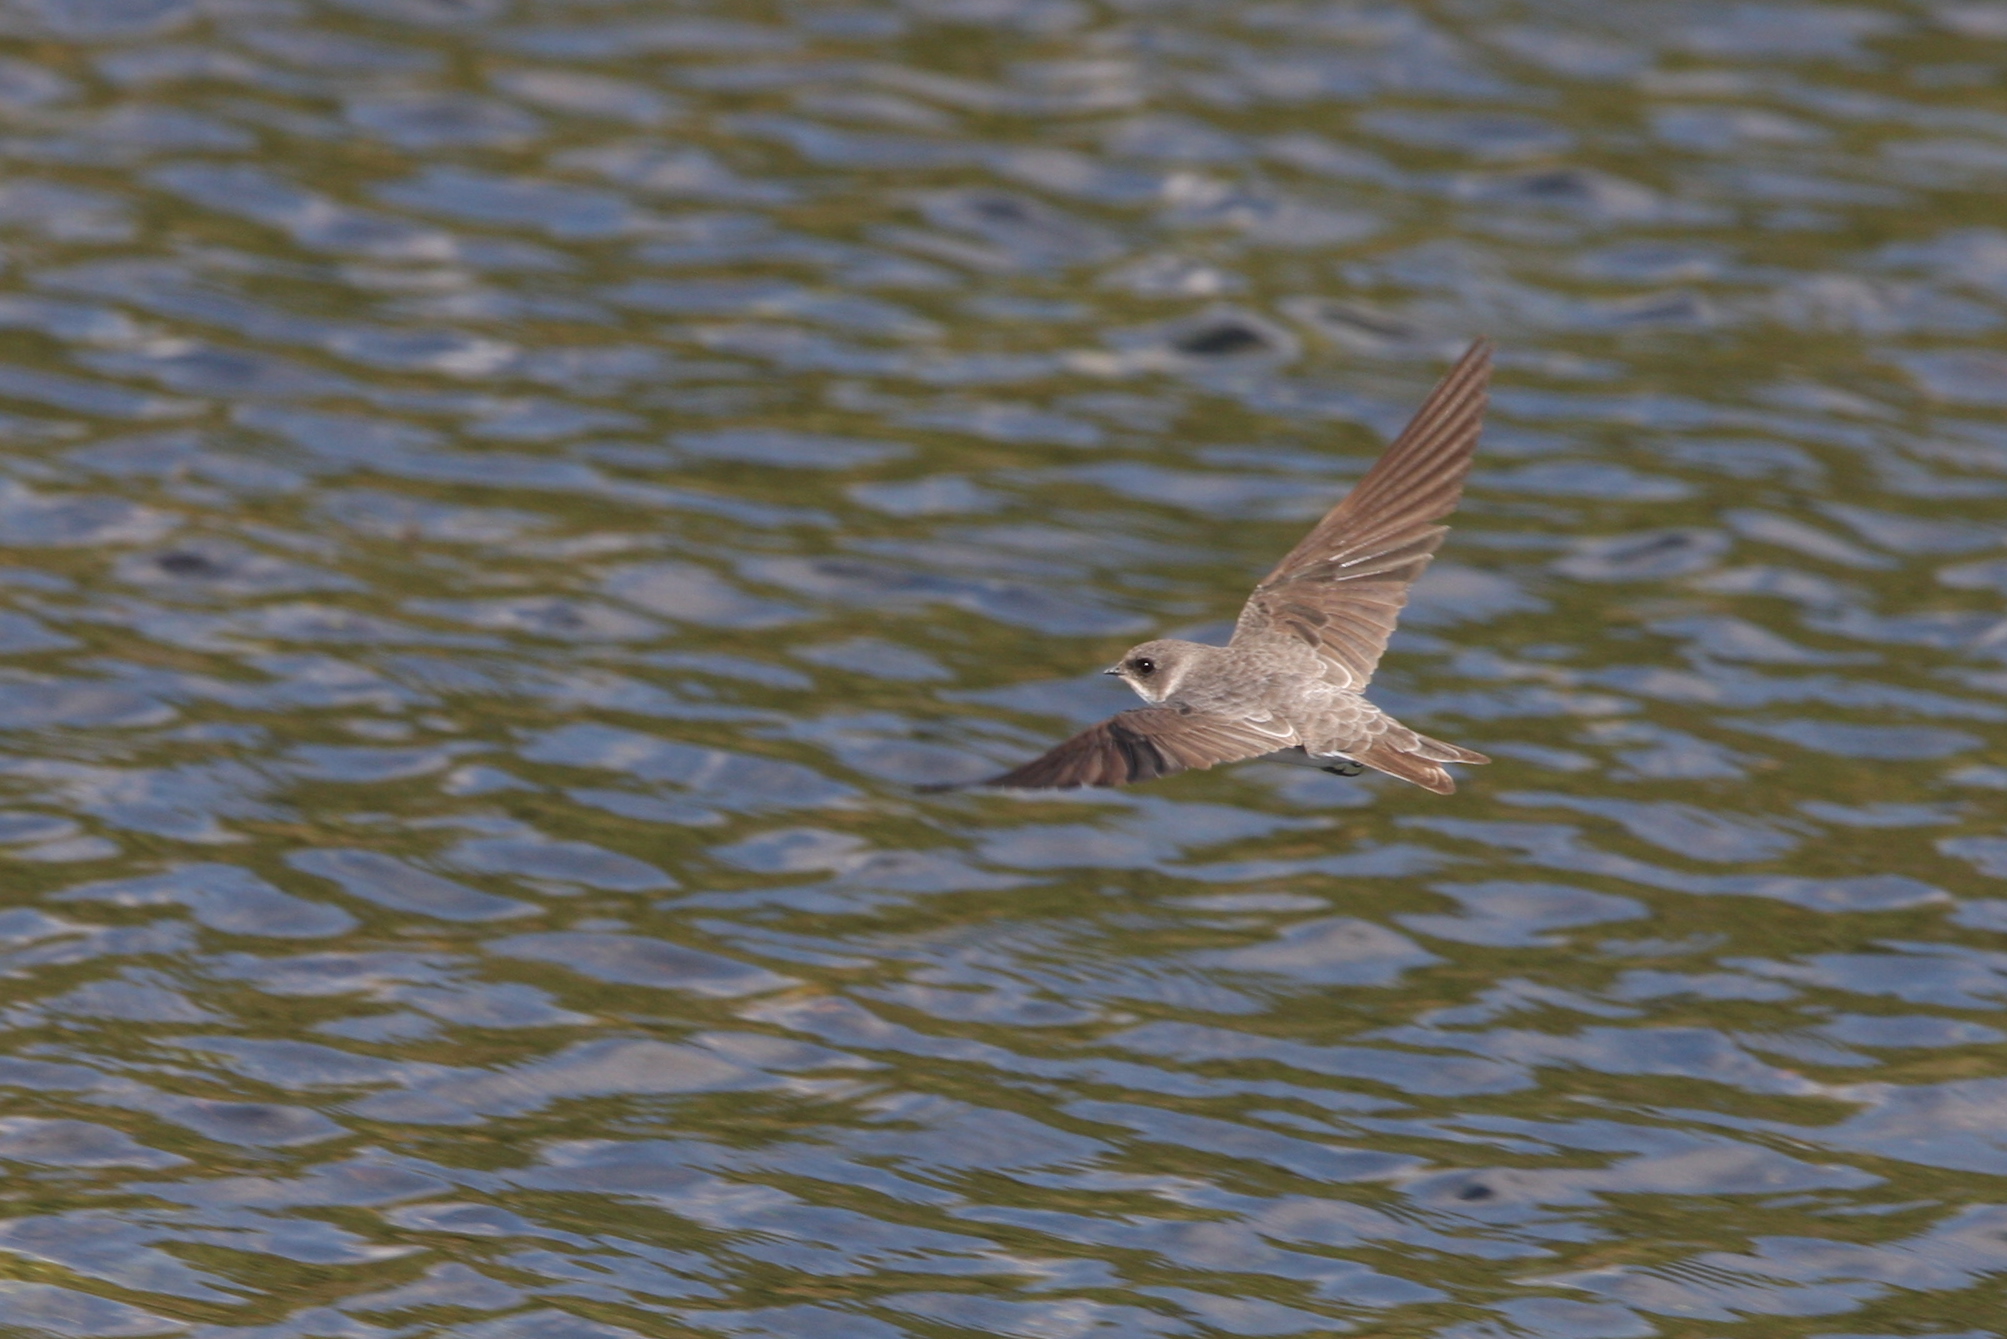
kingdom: Animalia
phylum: Chordata
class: Aves
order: Passeriformes
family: Hirundinidae
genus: Riparia
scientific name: Riparia riparia
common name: Sand martin
